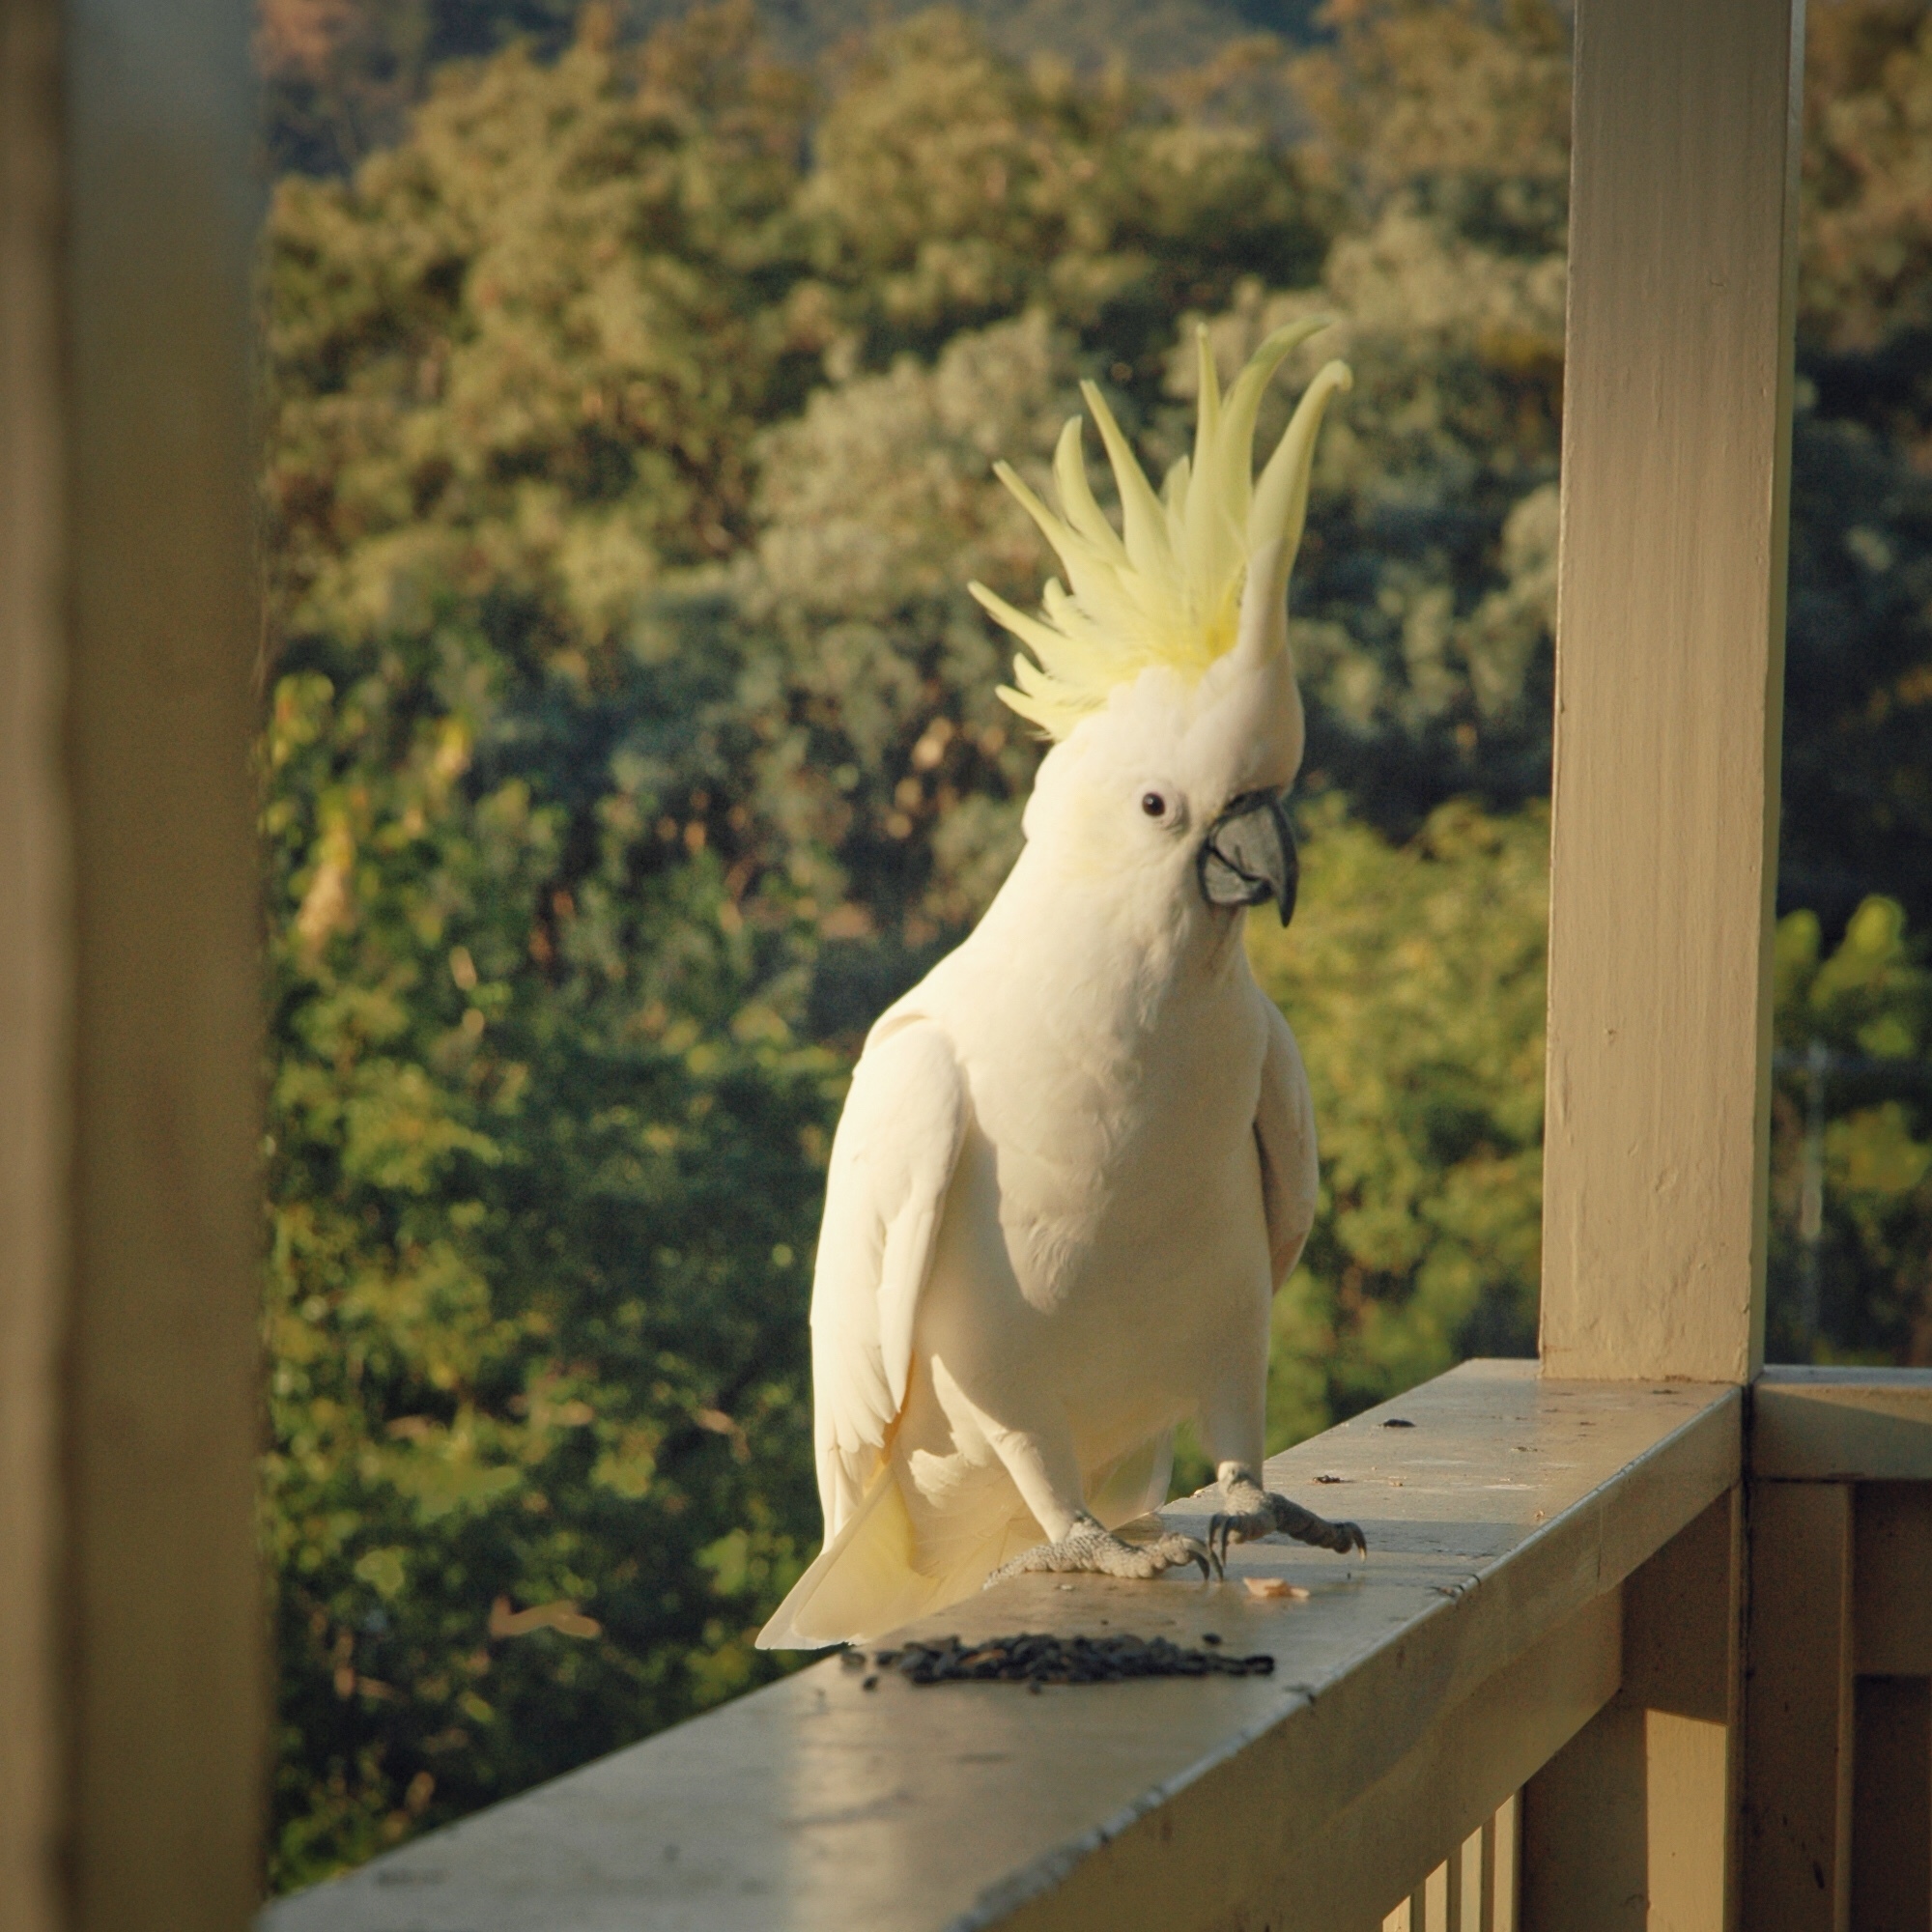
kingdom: Animalia
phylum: Chordata
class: Aves
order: Psittaciformes
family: Psittacidae
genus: Cacatua
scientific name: Cacatua galerita
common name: Sulphur-crested cockatoo
